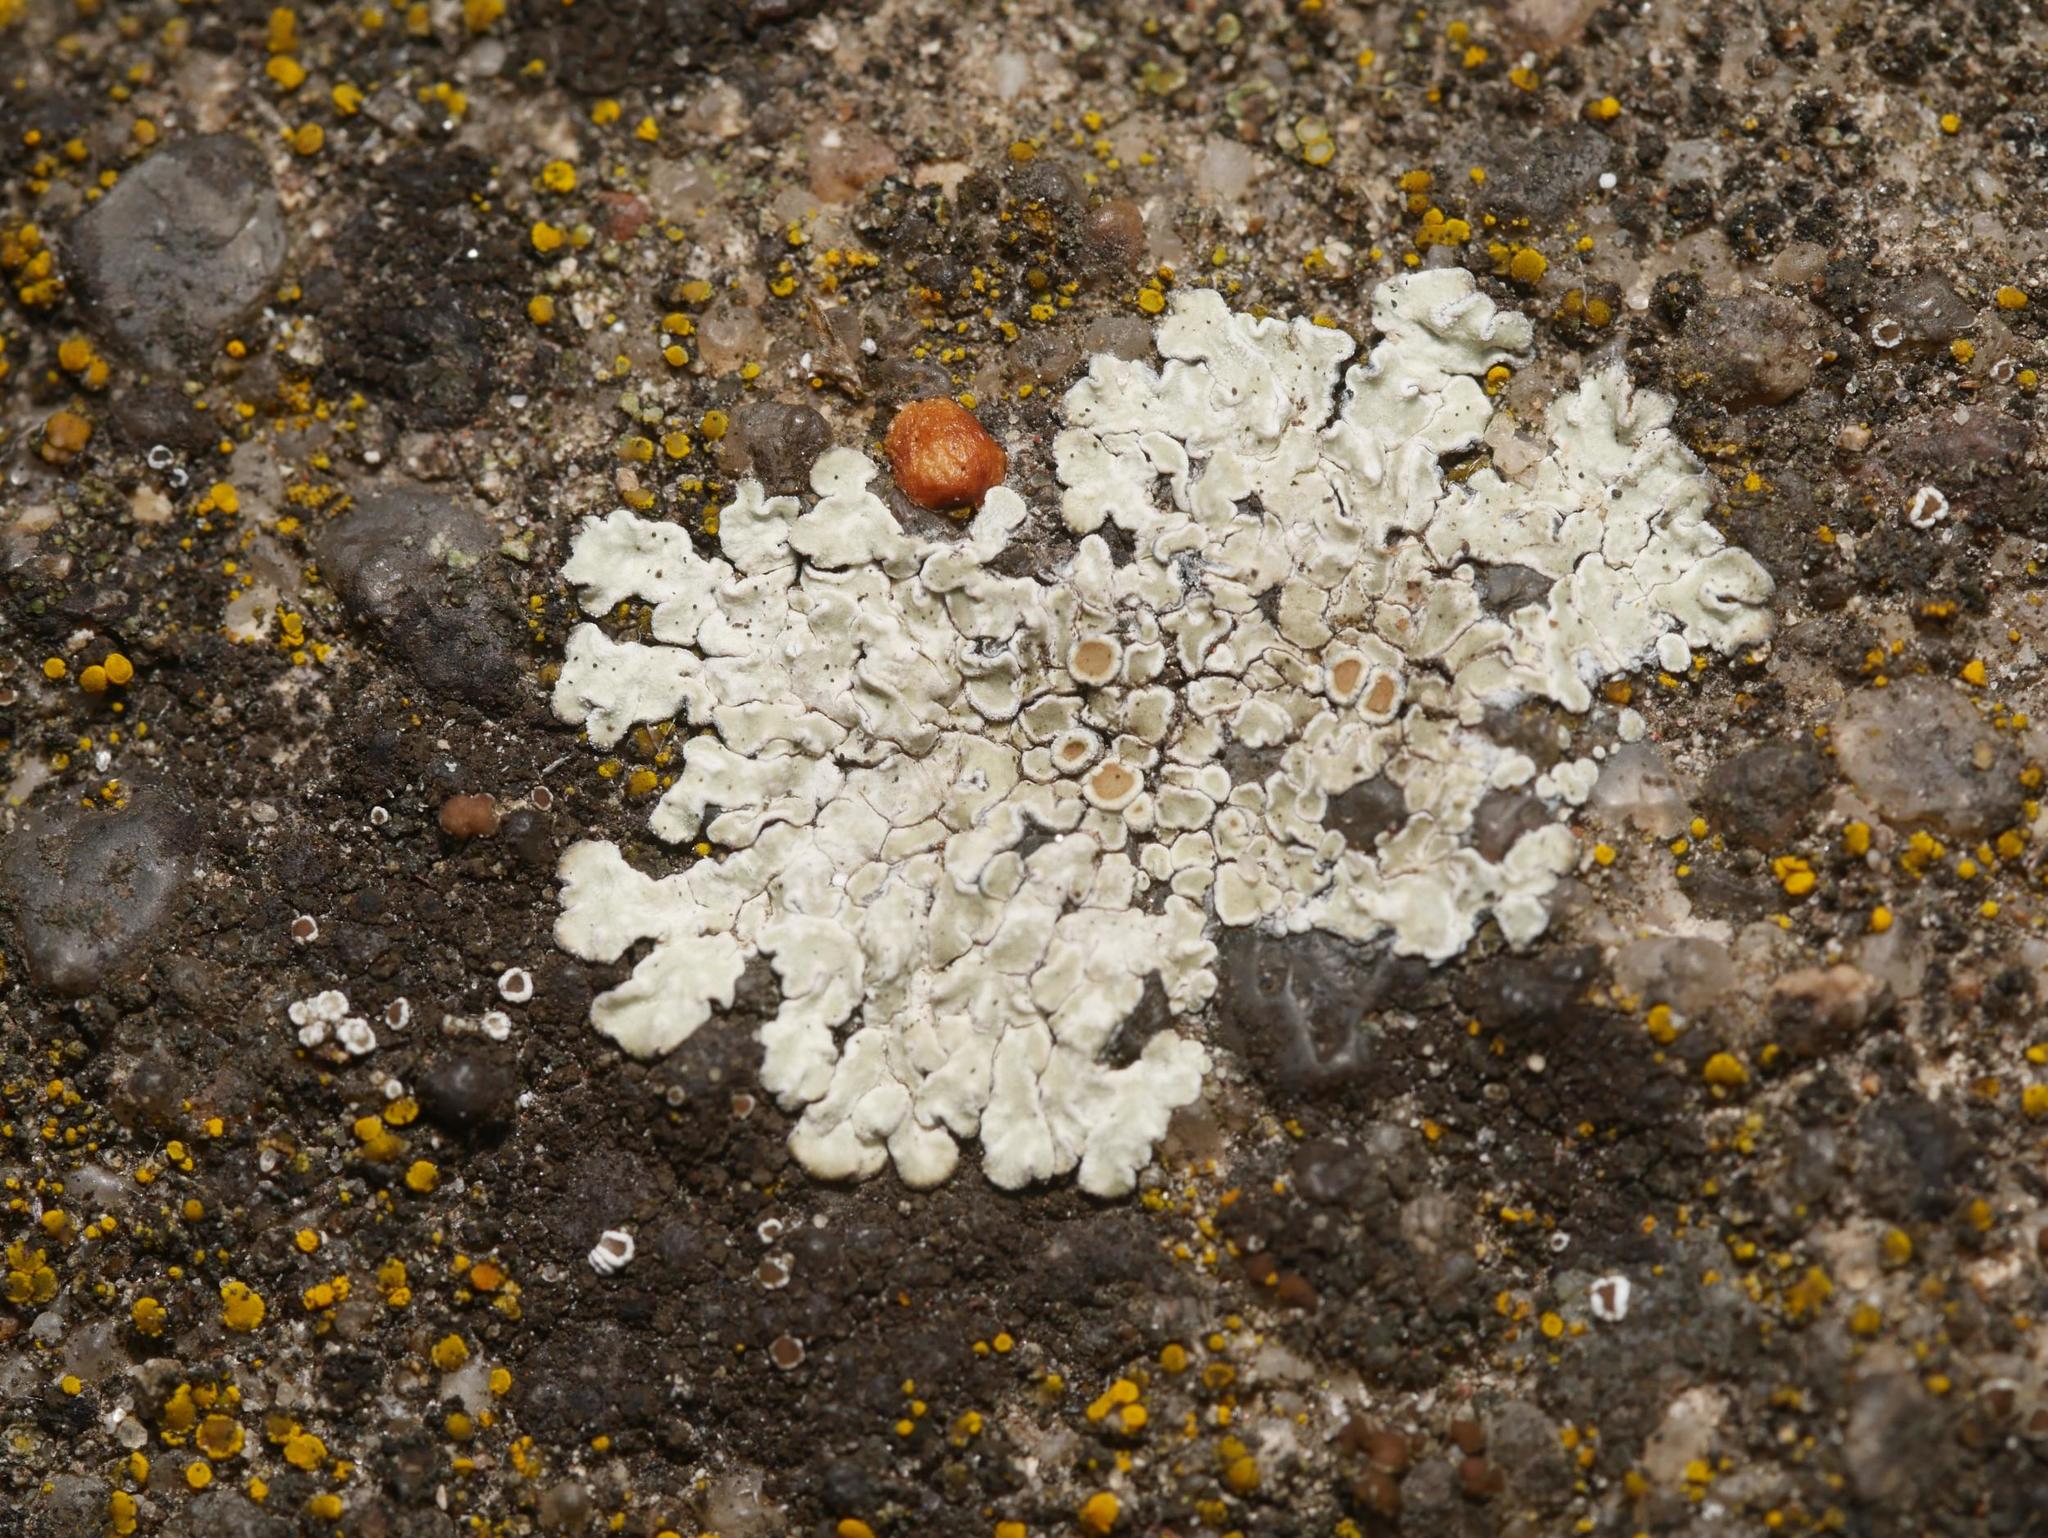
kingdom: Fungi
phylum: Ascomycota
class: Lecanoromycetes
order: Lecanorales
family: Lecanoraceae
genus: Protoparmeliopsis
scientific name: Protoparmeliopsis muralis
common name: Stonewall rim lichen
